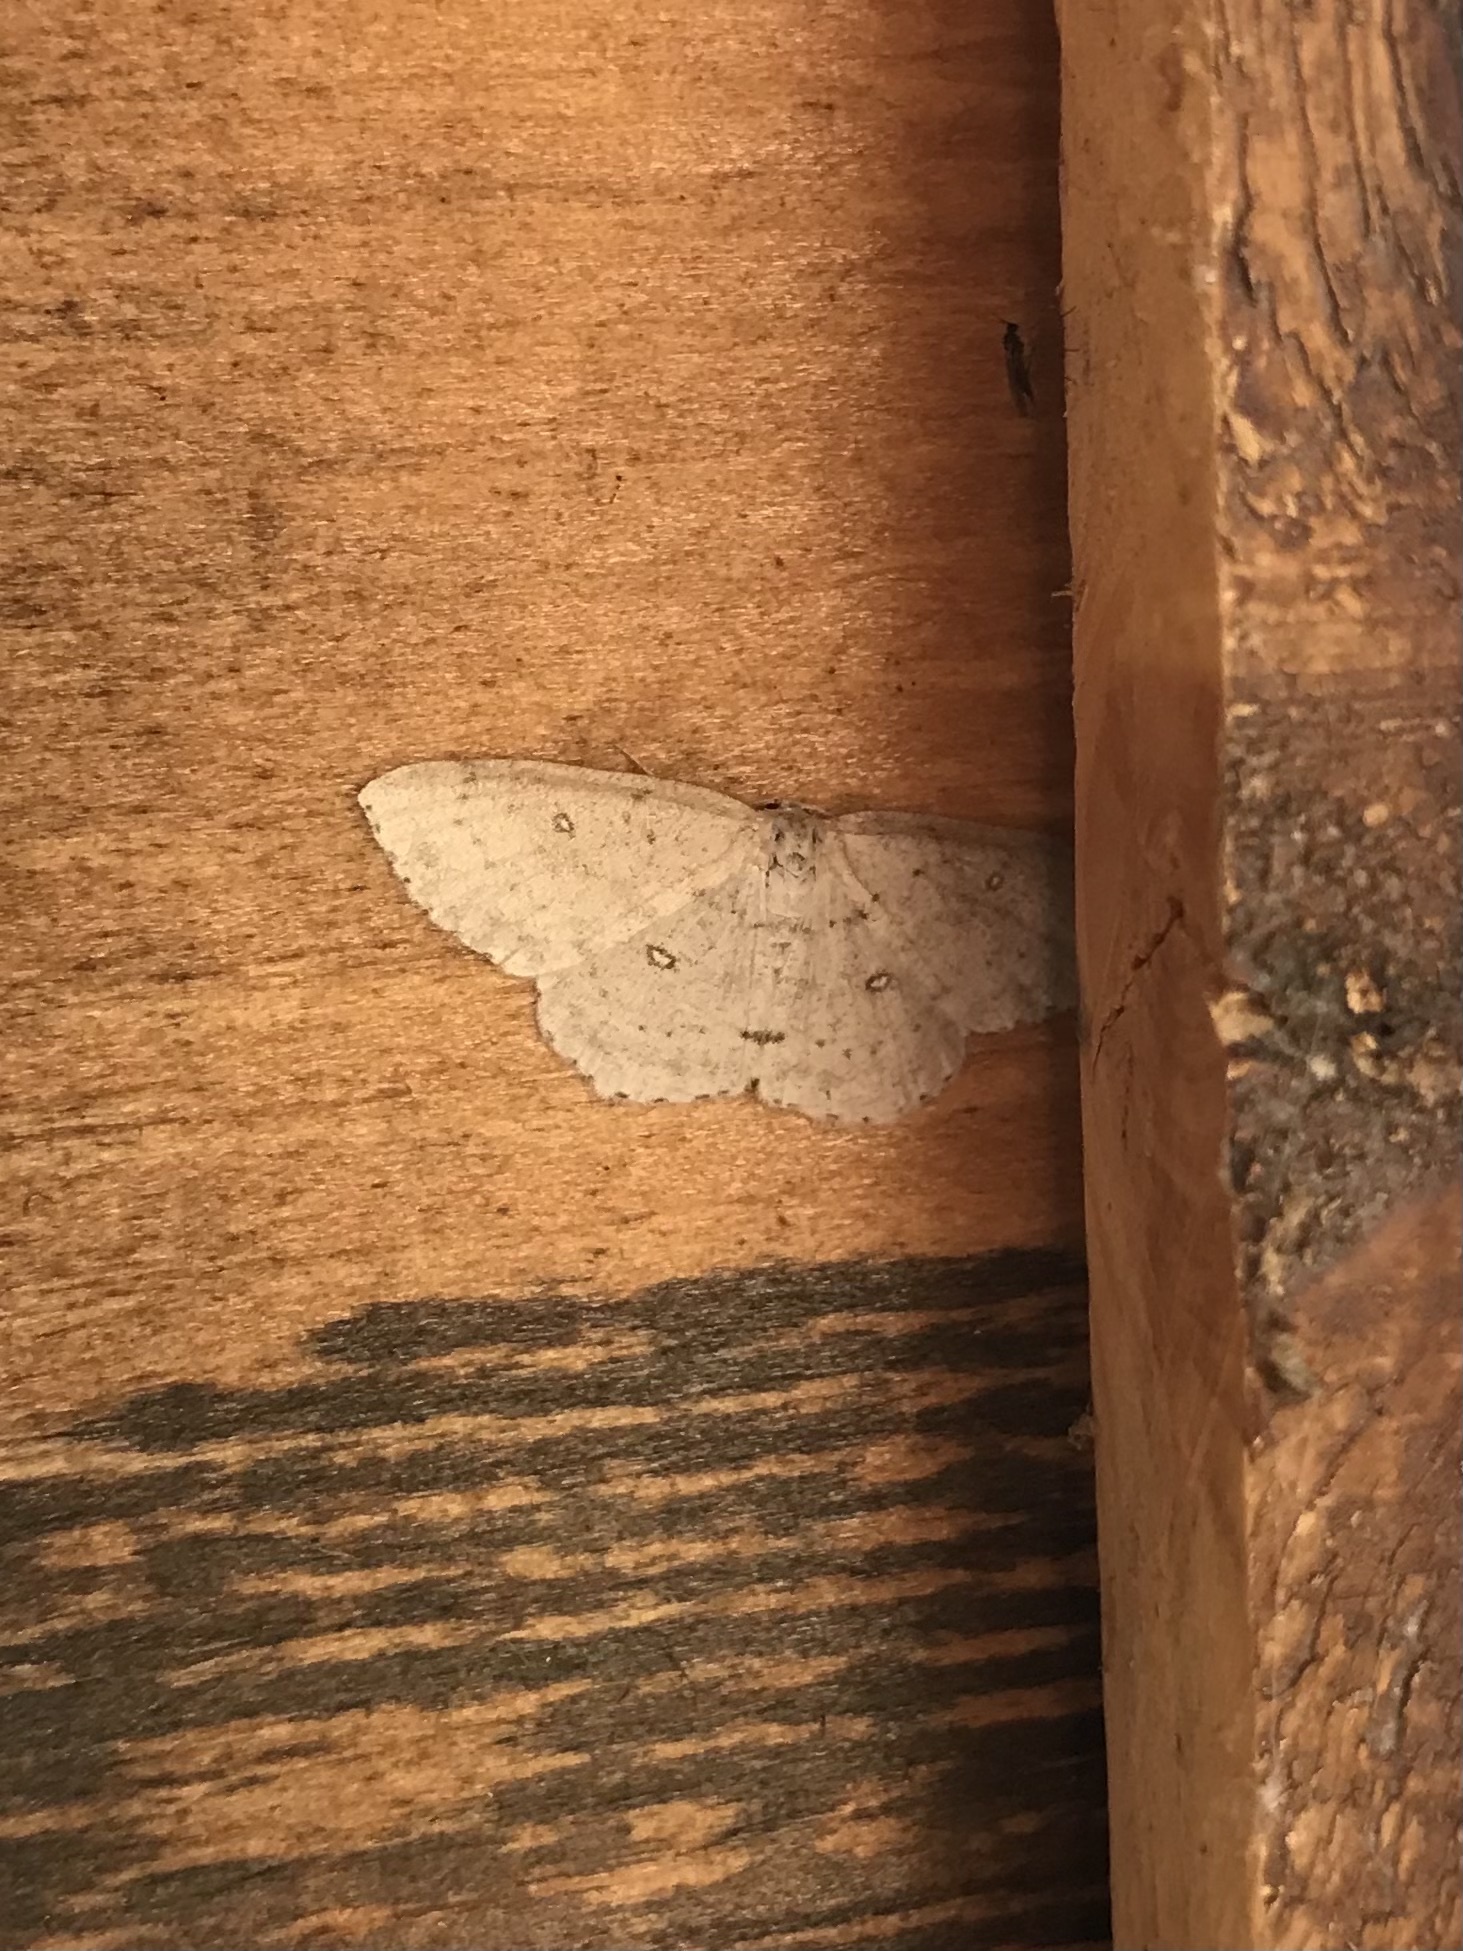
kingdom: Animalia
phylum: Arthropoda
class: Insecta
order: Lepidoptera
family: Geometridae
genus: Cyclophora
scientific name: Cyclophora pendulinaria
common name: Sweet fern geometer
